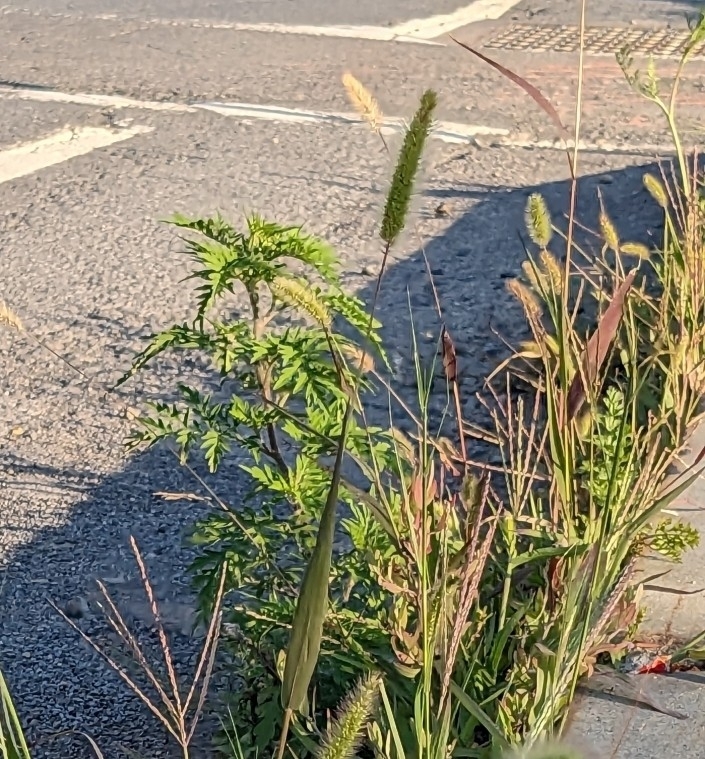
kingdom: Plantae
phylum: Tracheophyta
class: Magnoliopsida
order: Asterales
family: Asteraceae
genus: Ambrosia
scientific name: Ambrosia artemisiifolia
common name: Annual ragweed
